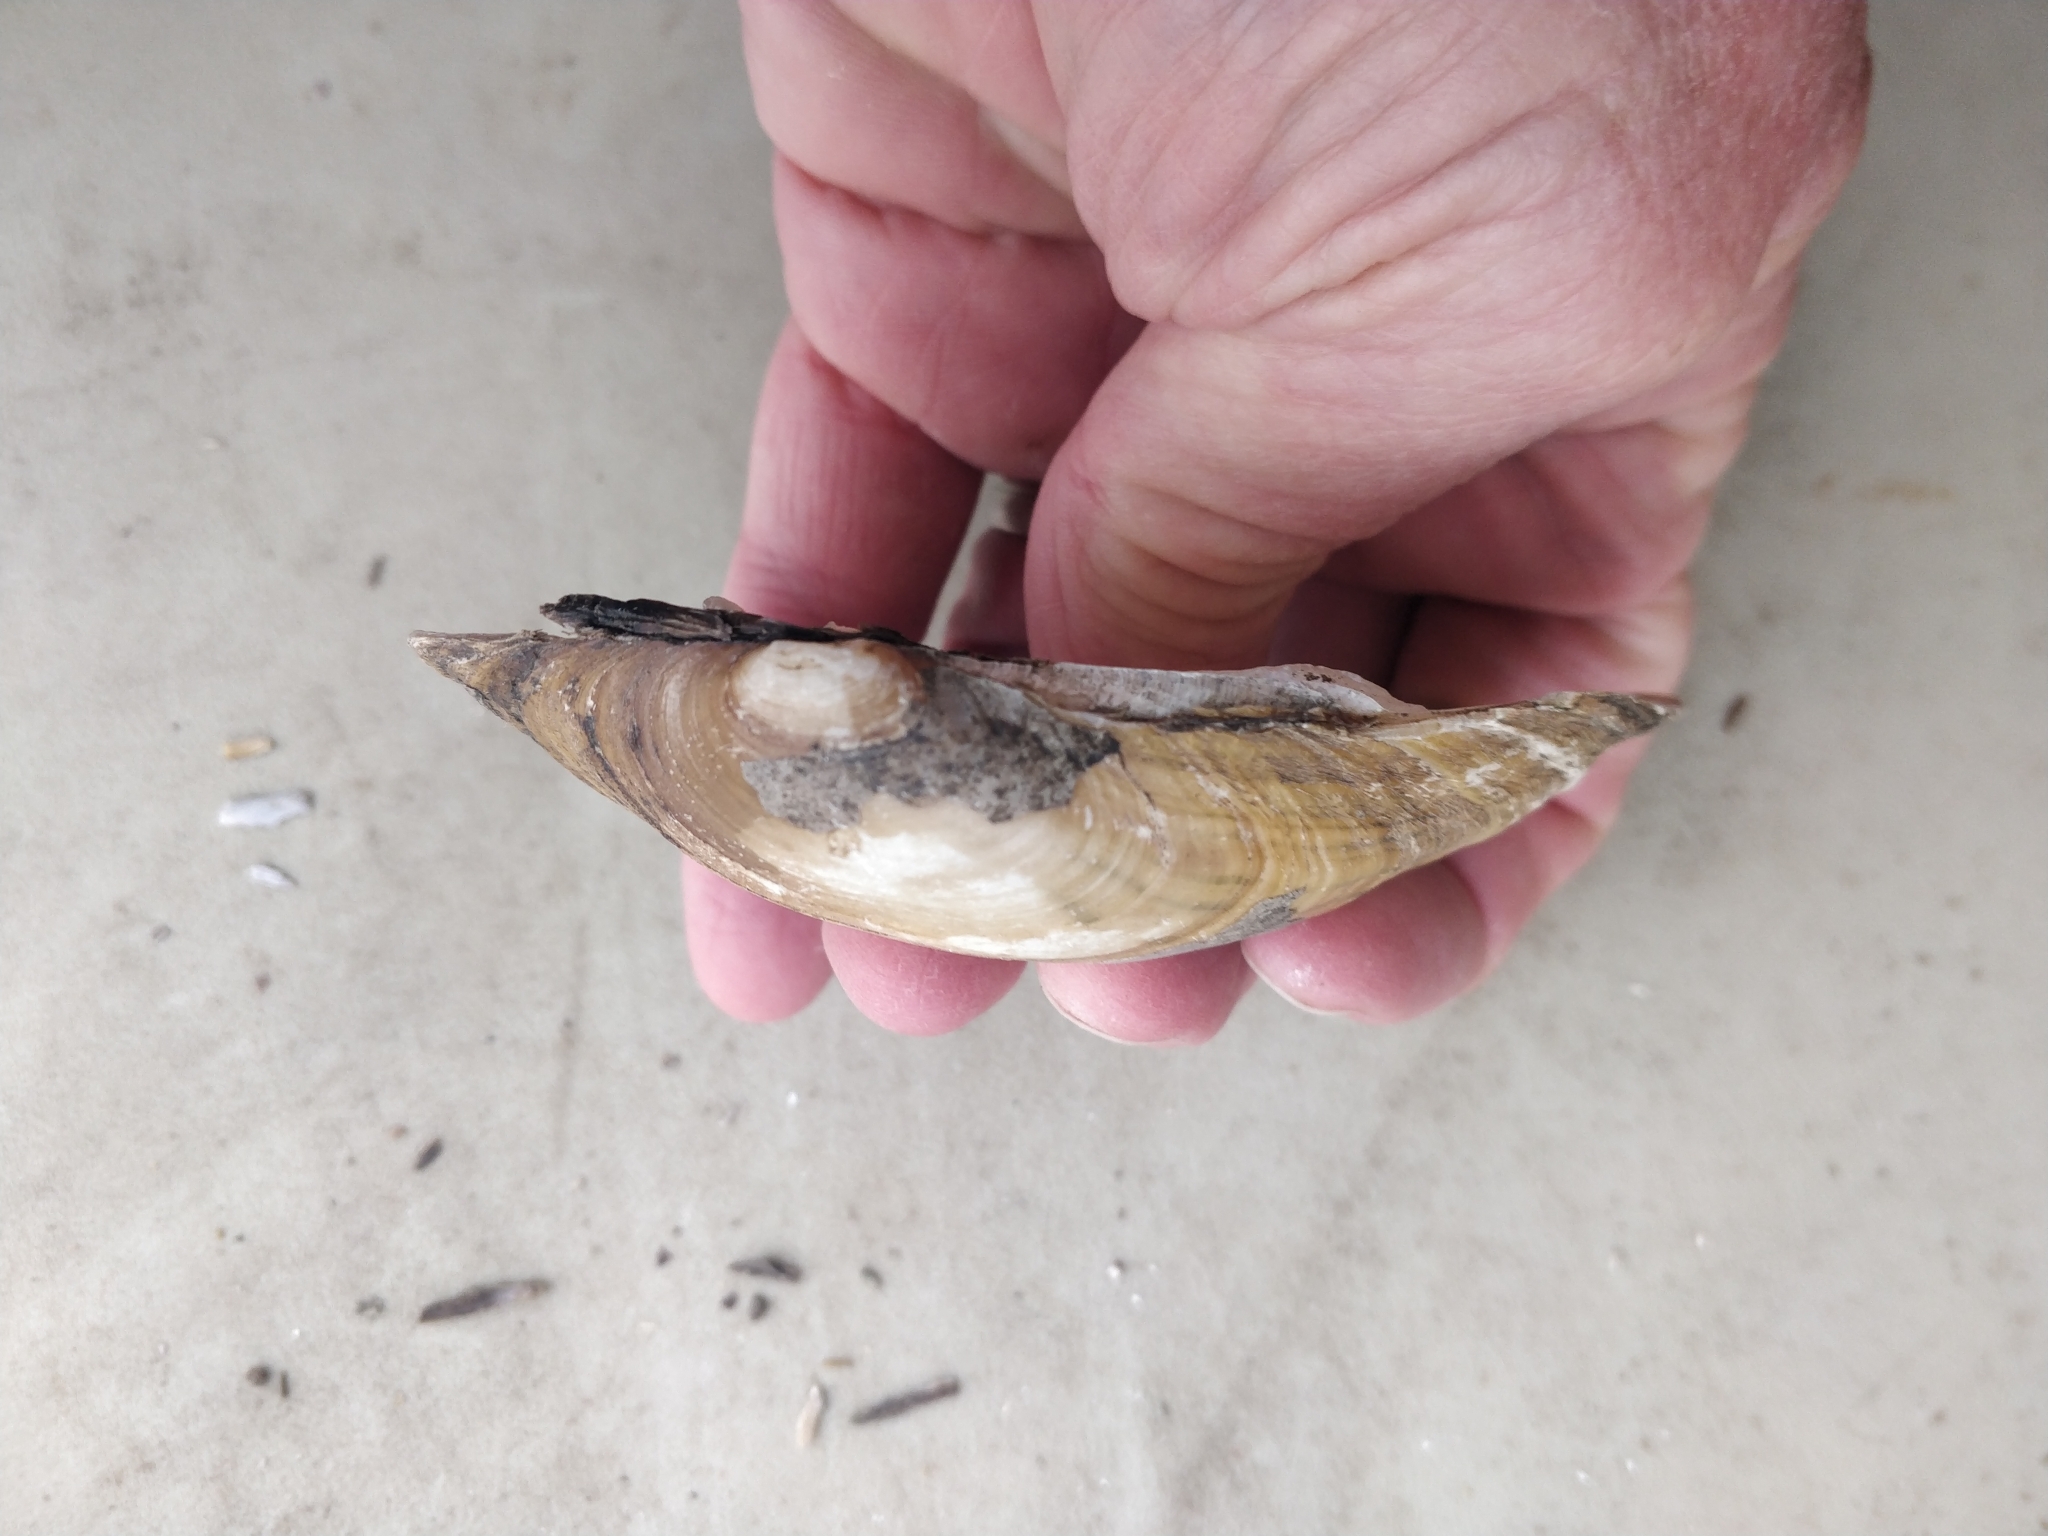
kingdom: Animalia
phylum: Mollusca
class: Bivalvia
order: Unionida
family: Unionidae
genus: Lampsilis
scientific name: Lampsilis cardium
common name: Plain pocketbook
